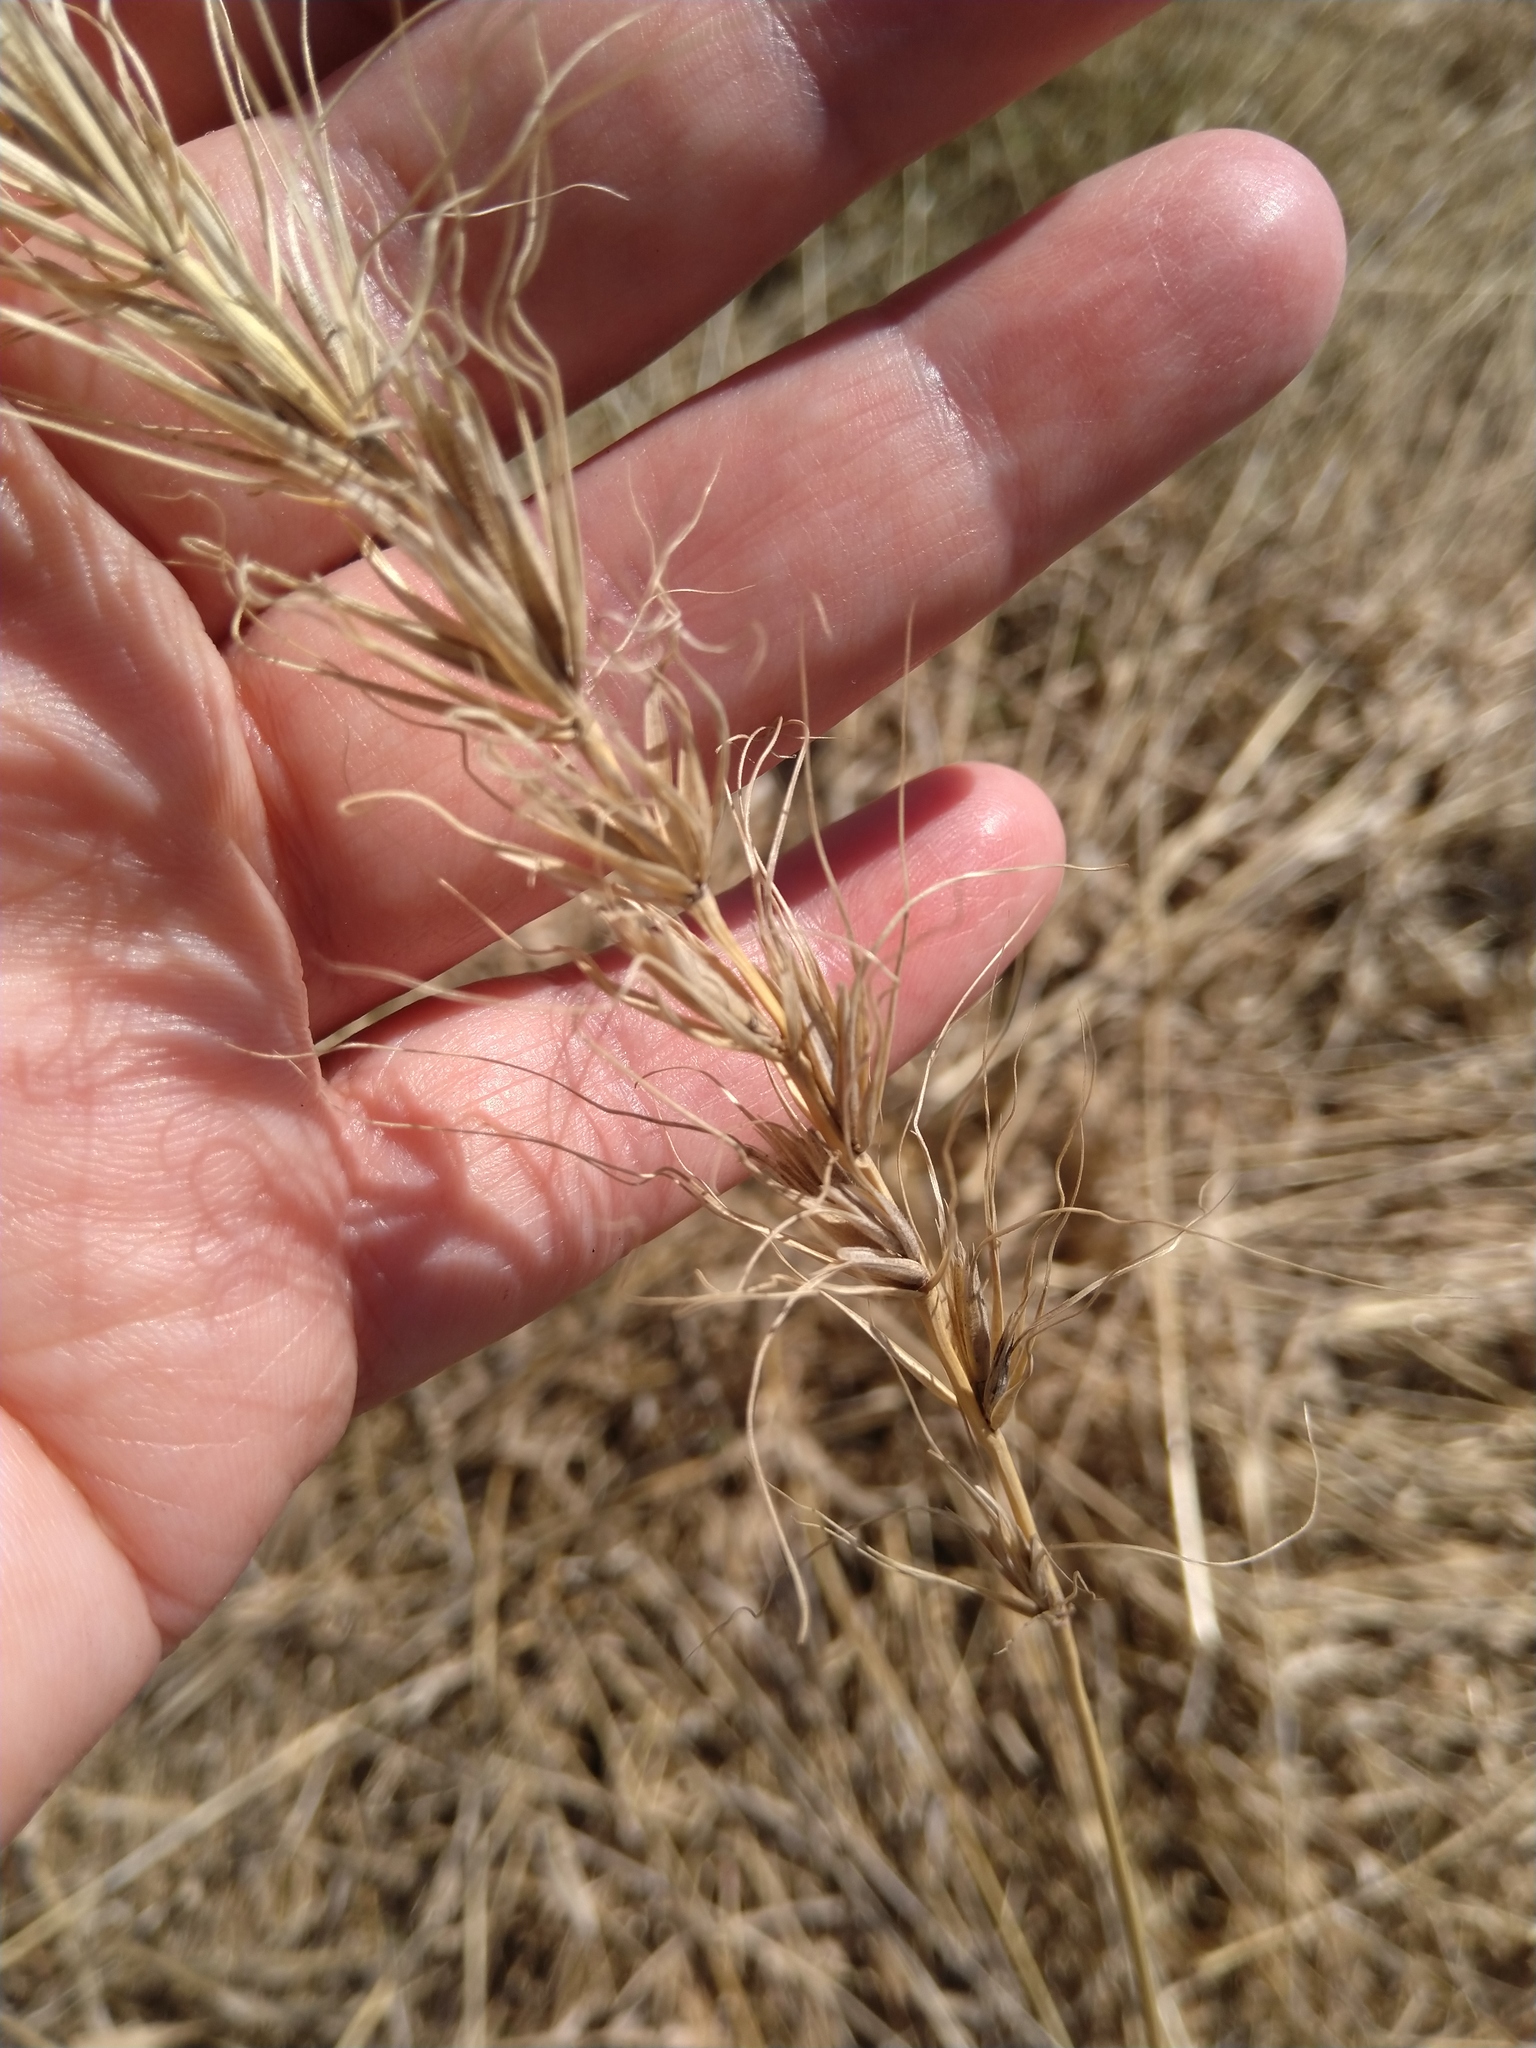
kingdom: Plantae
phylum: Tracheophyta
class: Liliopsida
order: Poales
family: Poaceae
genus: Elymus
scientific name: Elymus canadensis
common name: Canada wild rye
